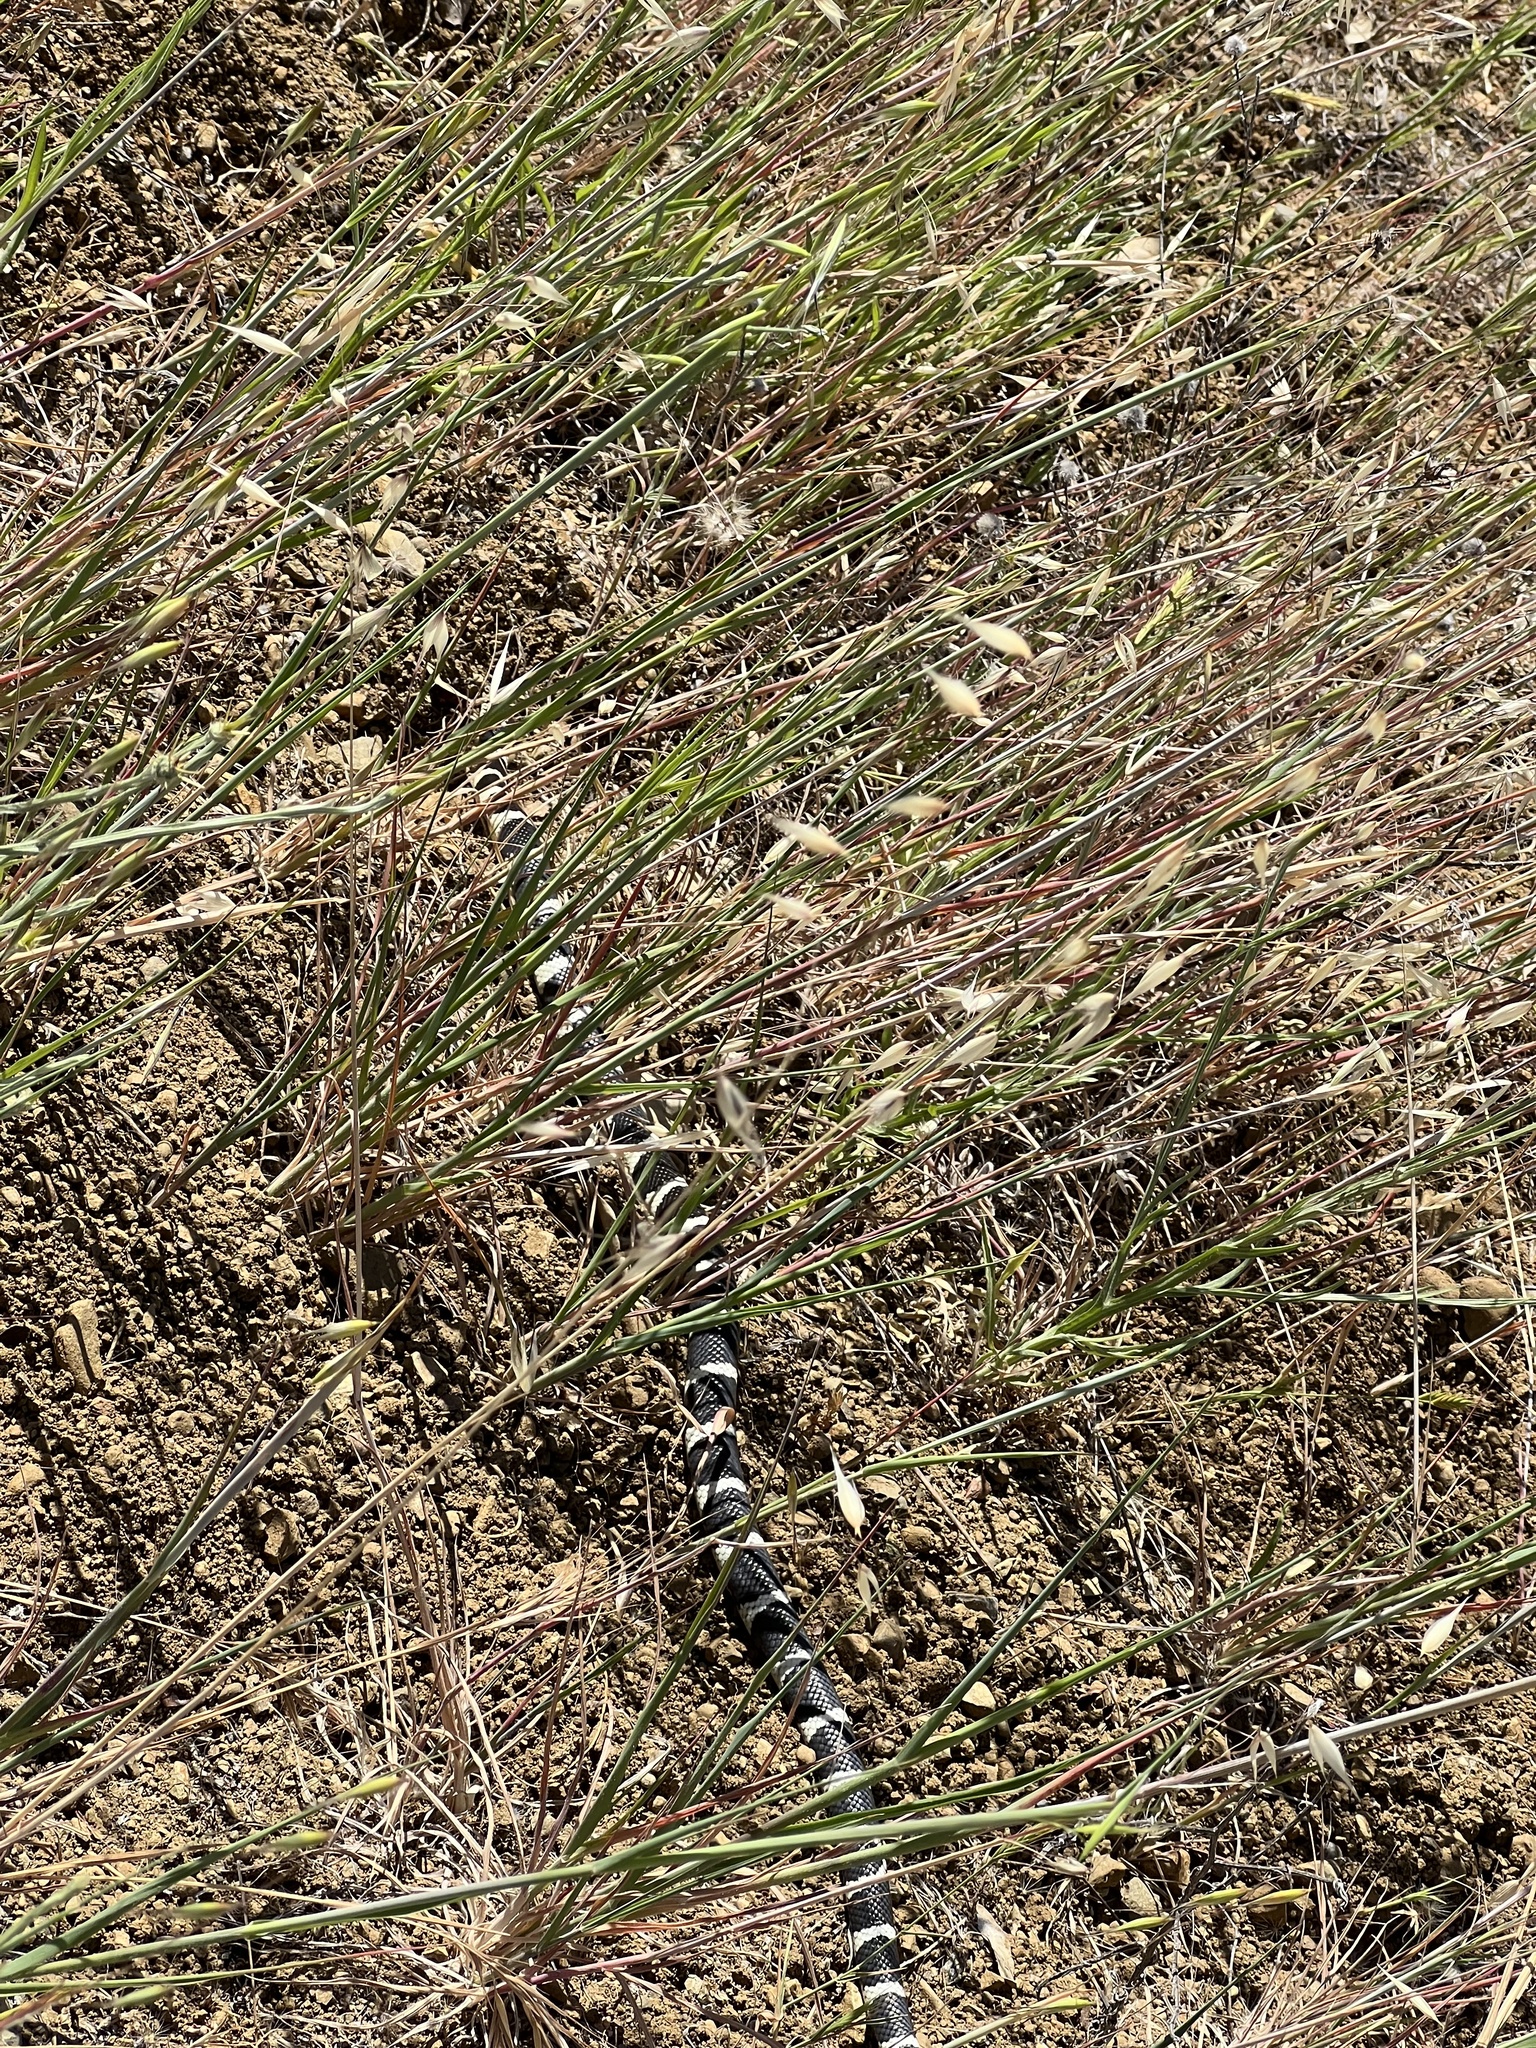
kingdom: Animalia
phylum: Chordata
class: Squamata
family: Colubridae
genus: Lampropeltis
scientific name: Lampropeltis californiae
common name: California kingsnake
